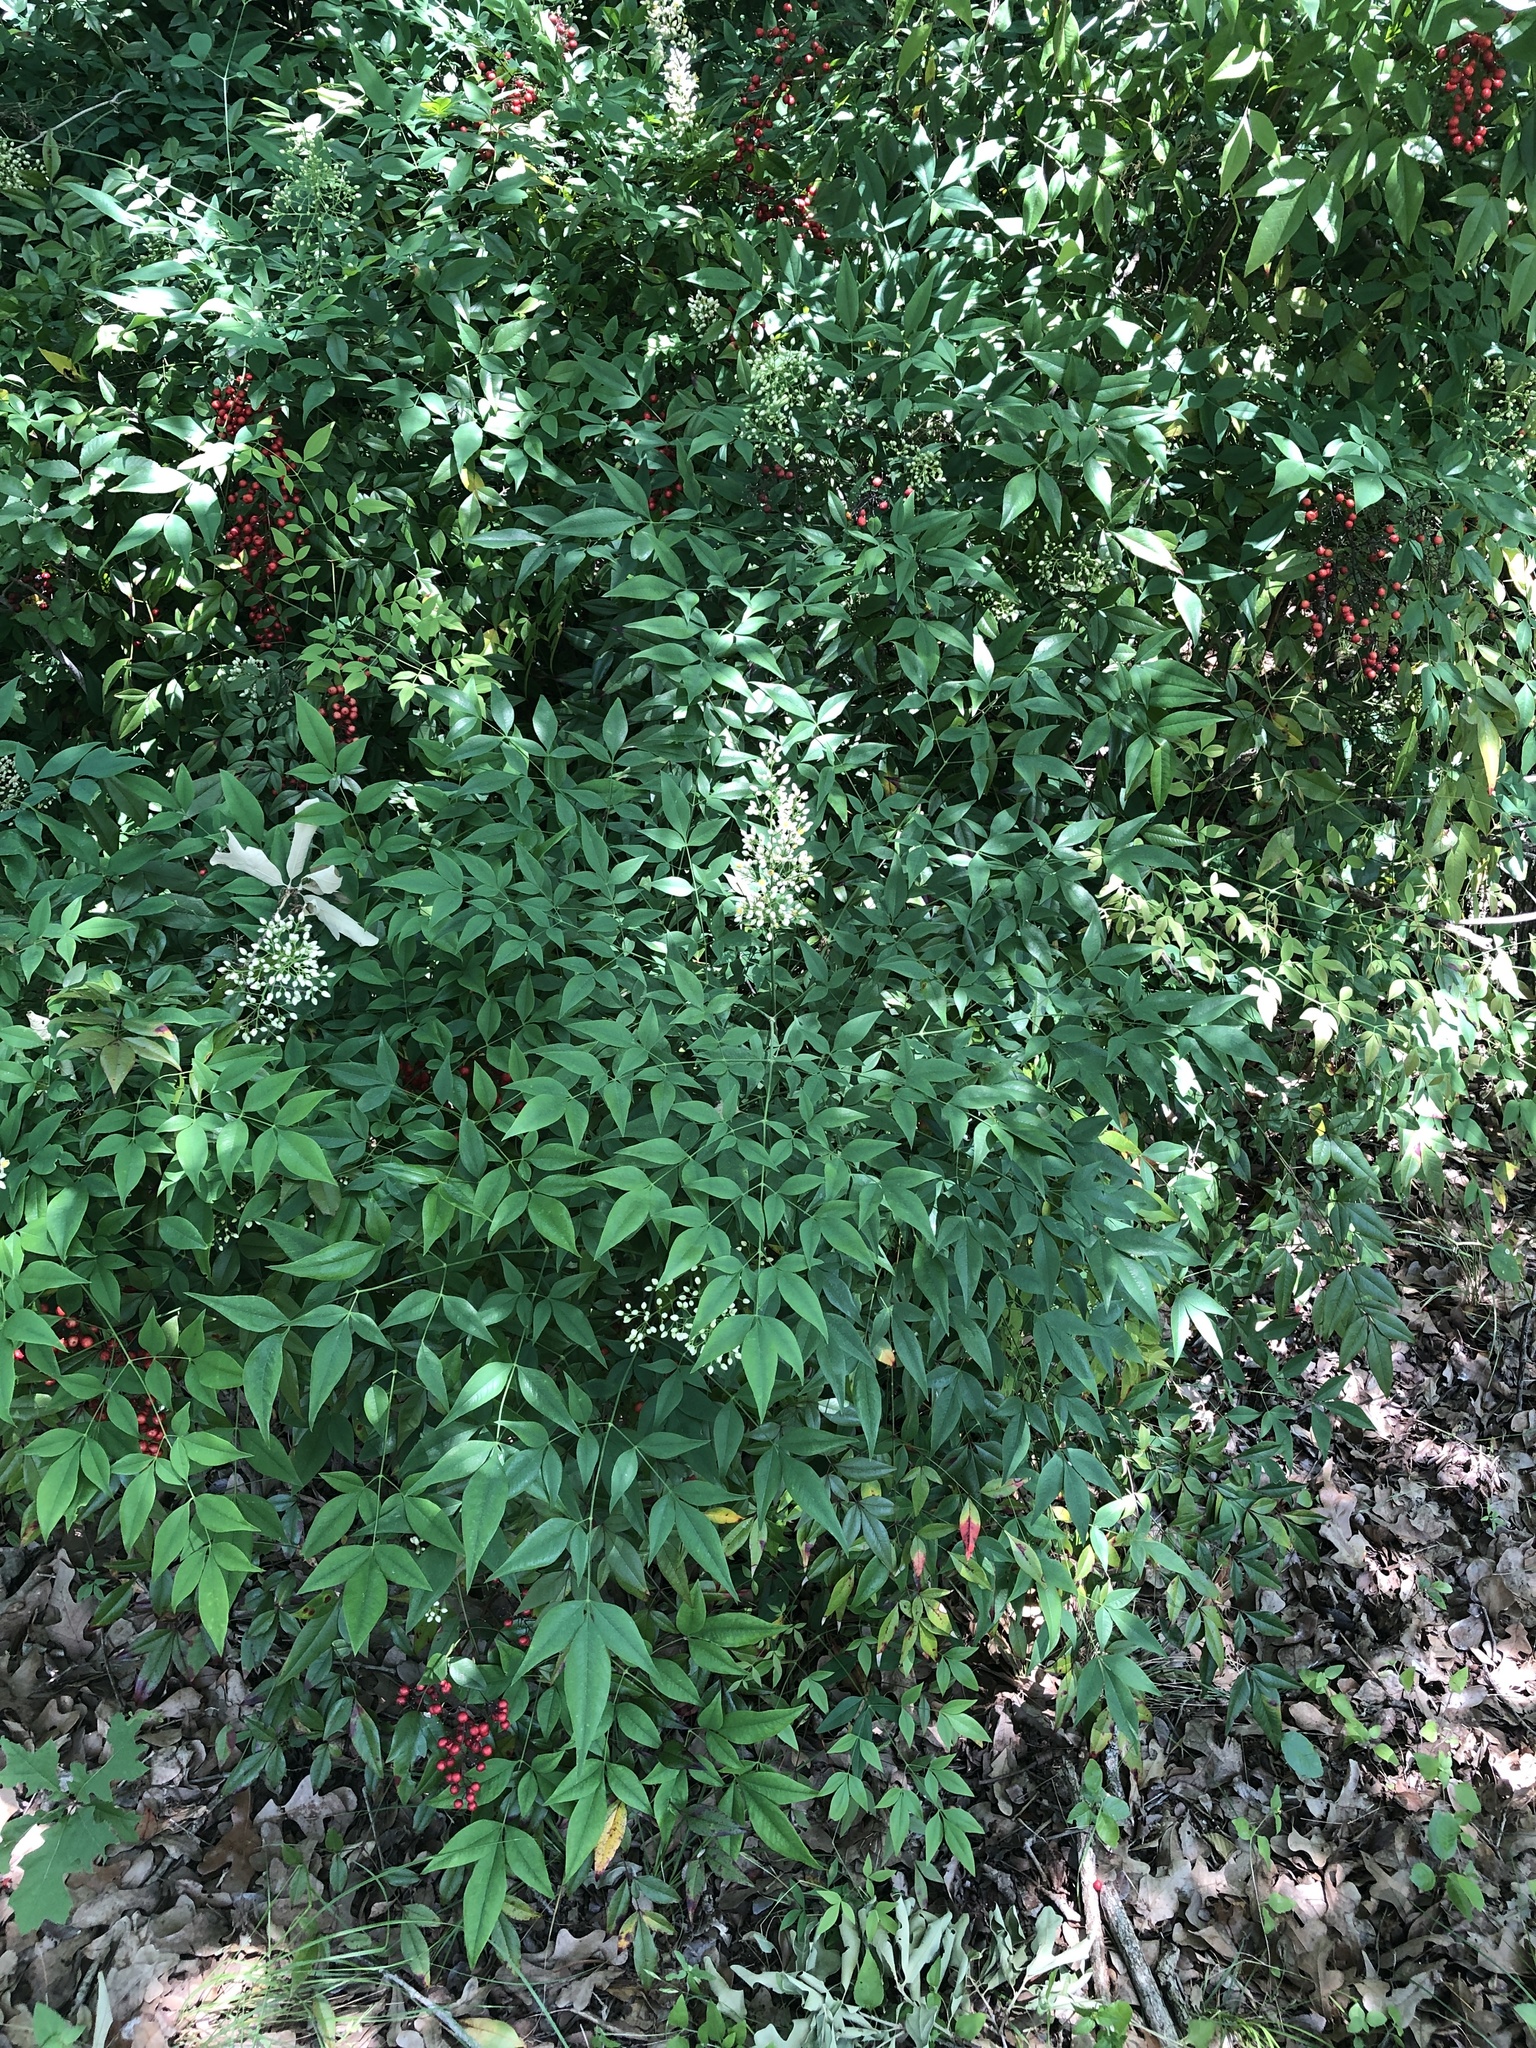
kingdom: Plantae
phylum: Tracheophyta
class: Magnoliopsida
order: Ranunculales
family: Berberidaceae
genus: Nandina
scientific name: Nandina domestica
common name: Sacred bamboo
